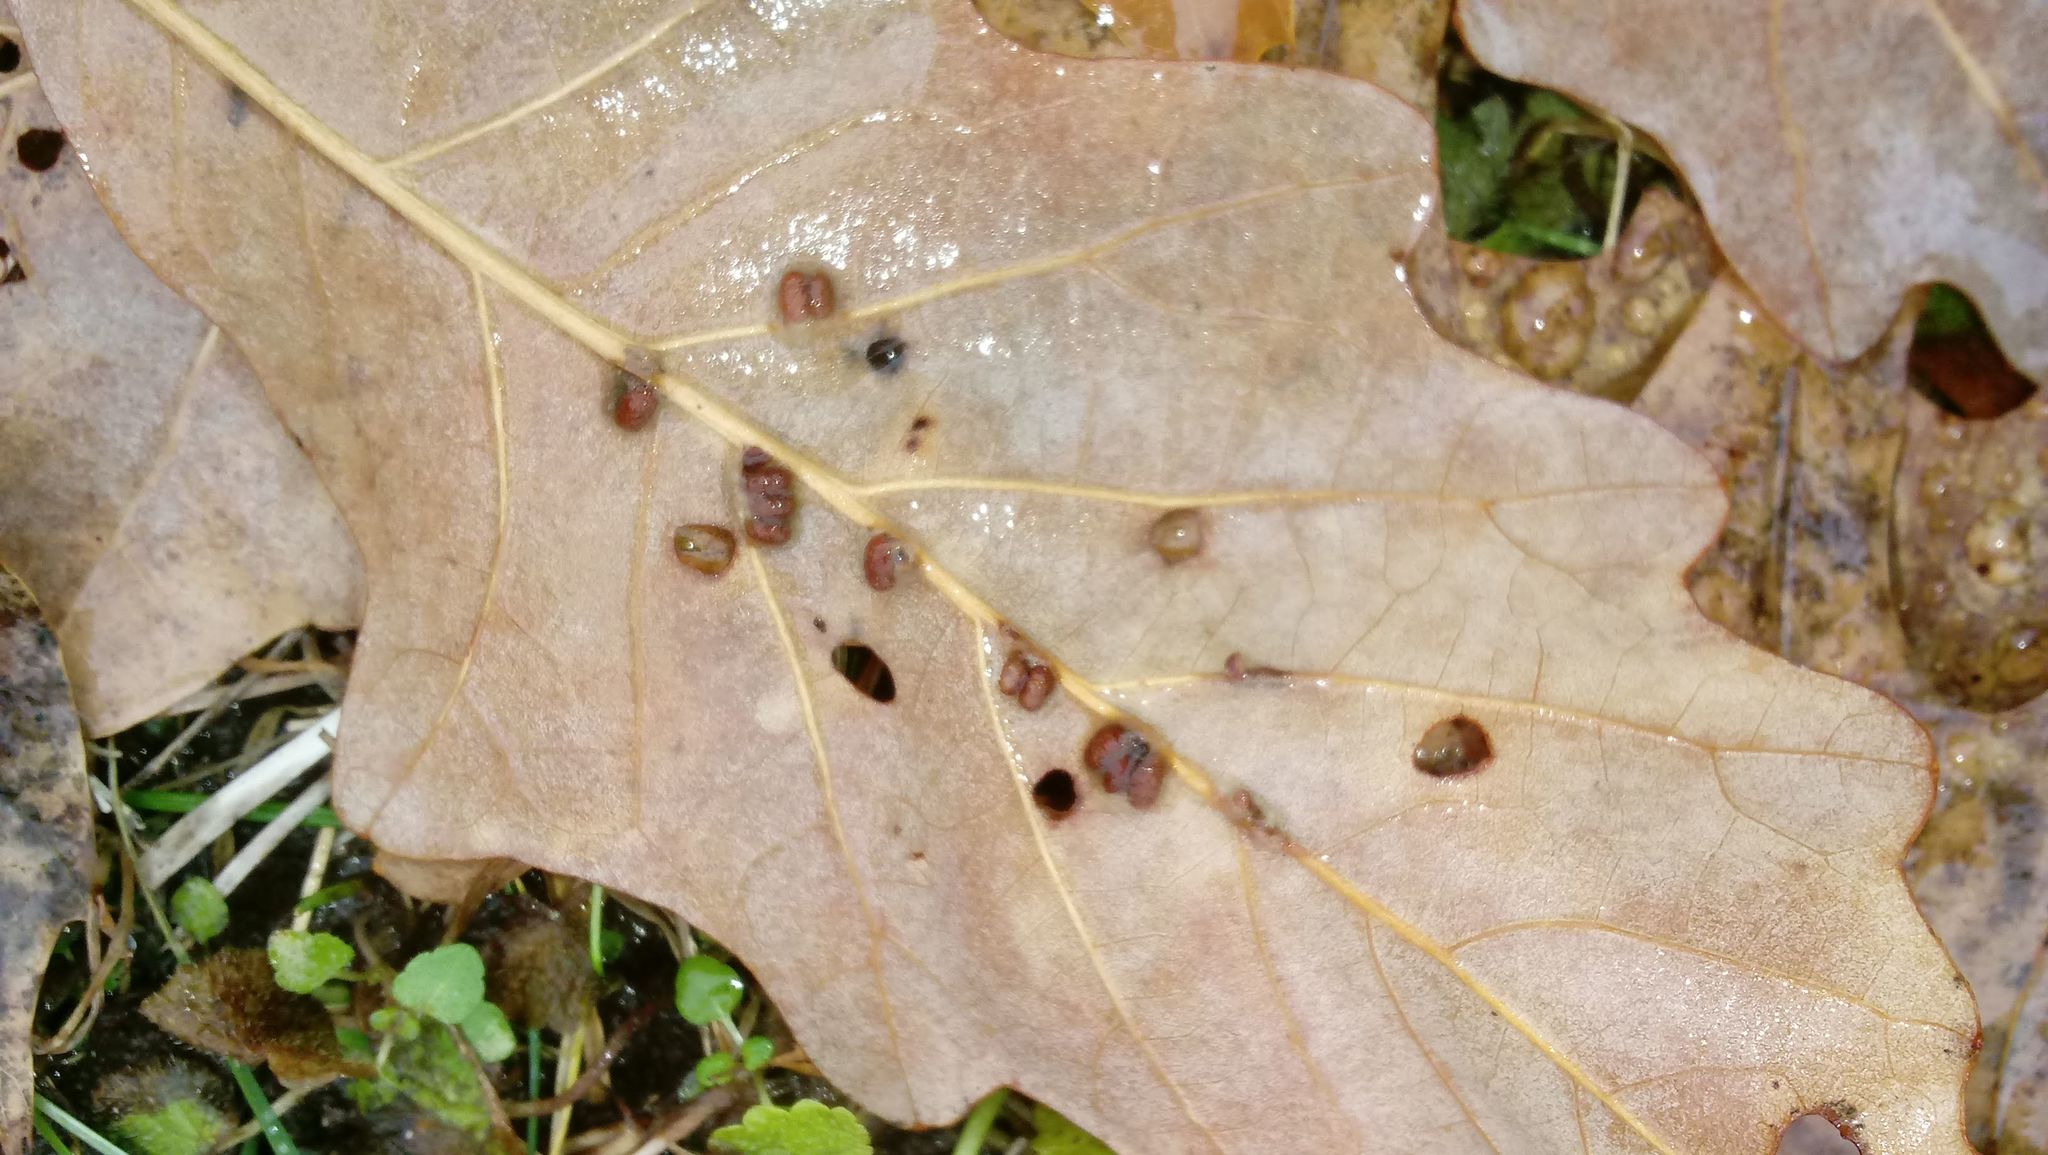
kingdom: Animalia
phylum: Arthropoda
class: Insecta
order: Hymenoptera
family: Cynipidae
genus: Andricus
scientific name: Andricus Druon ignotum
